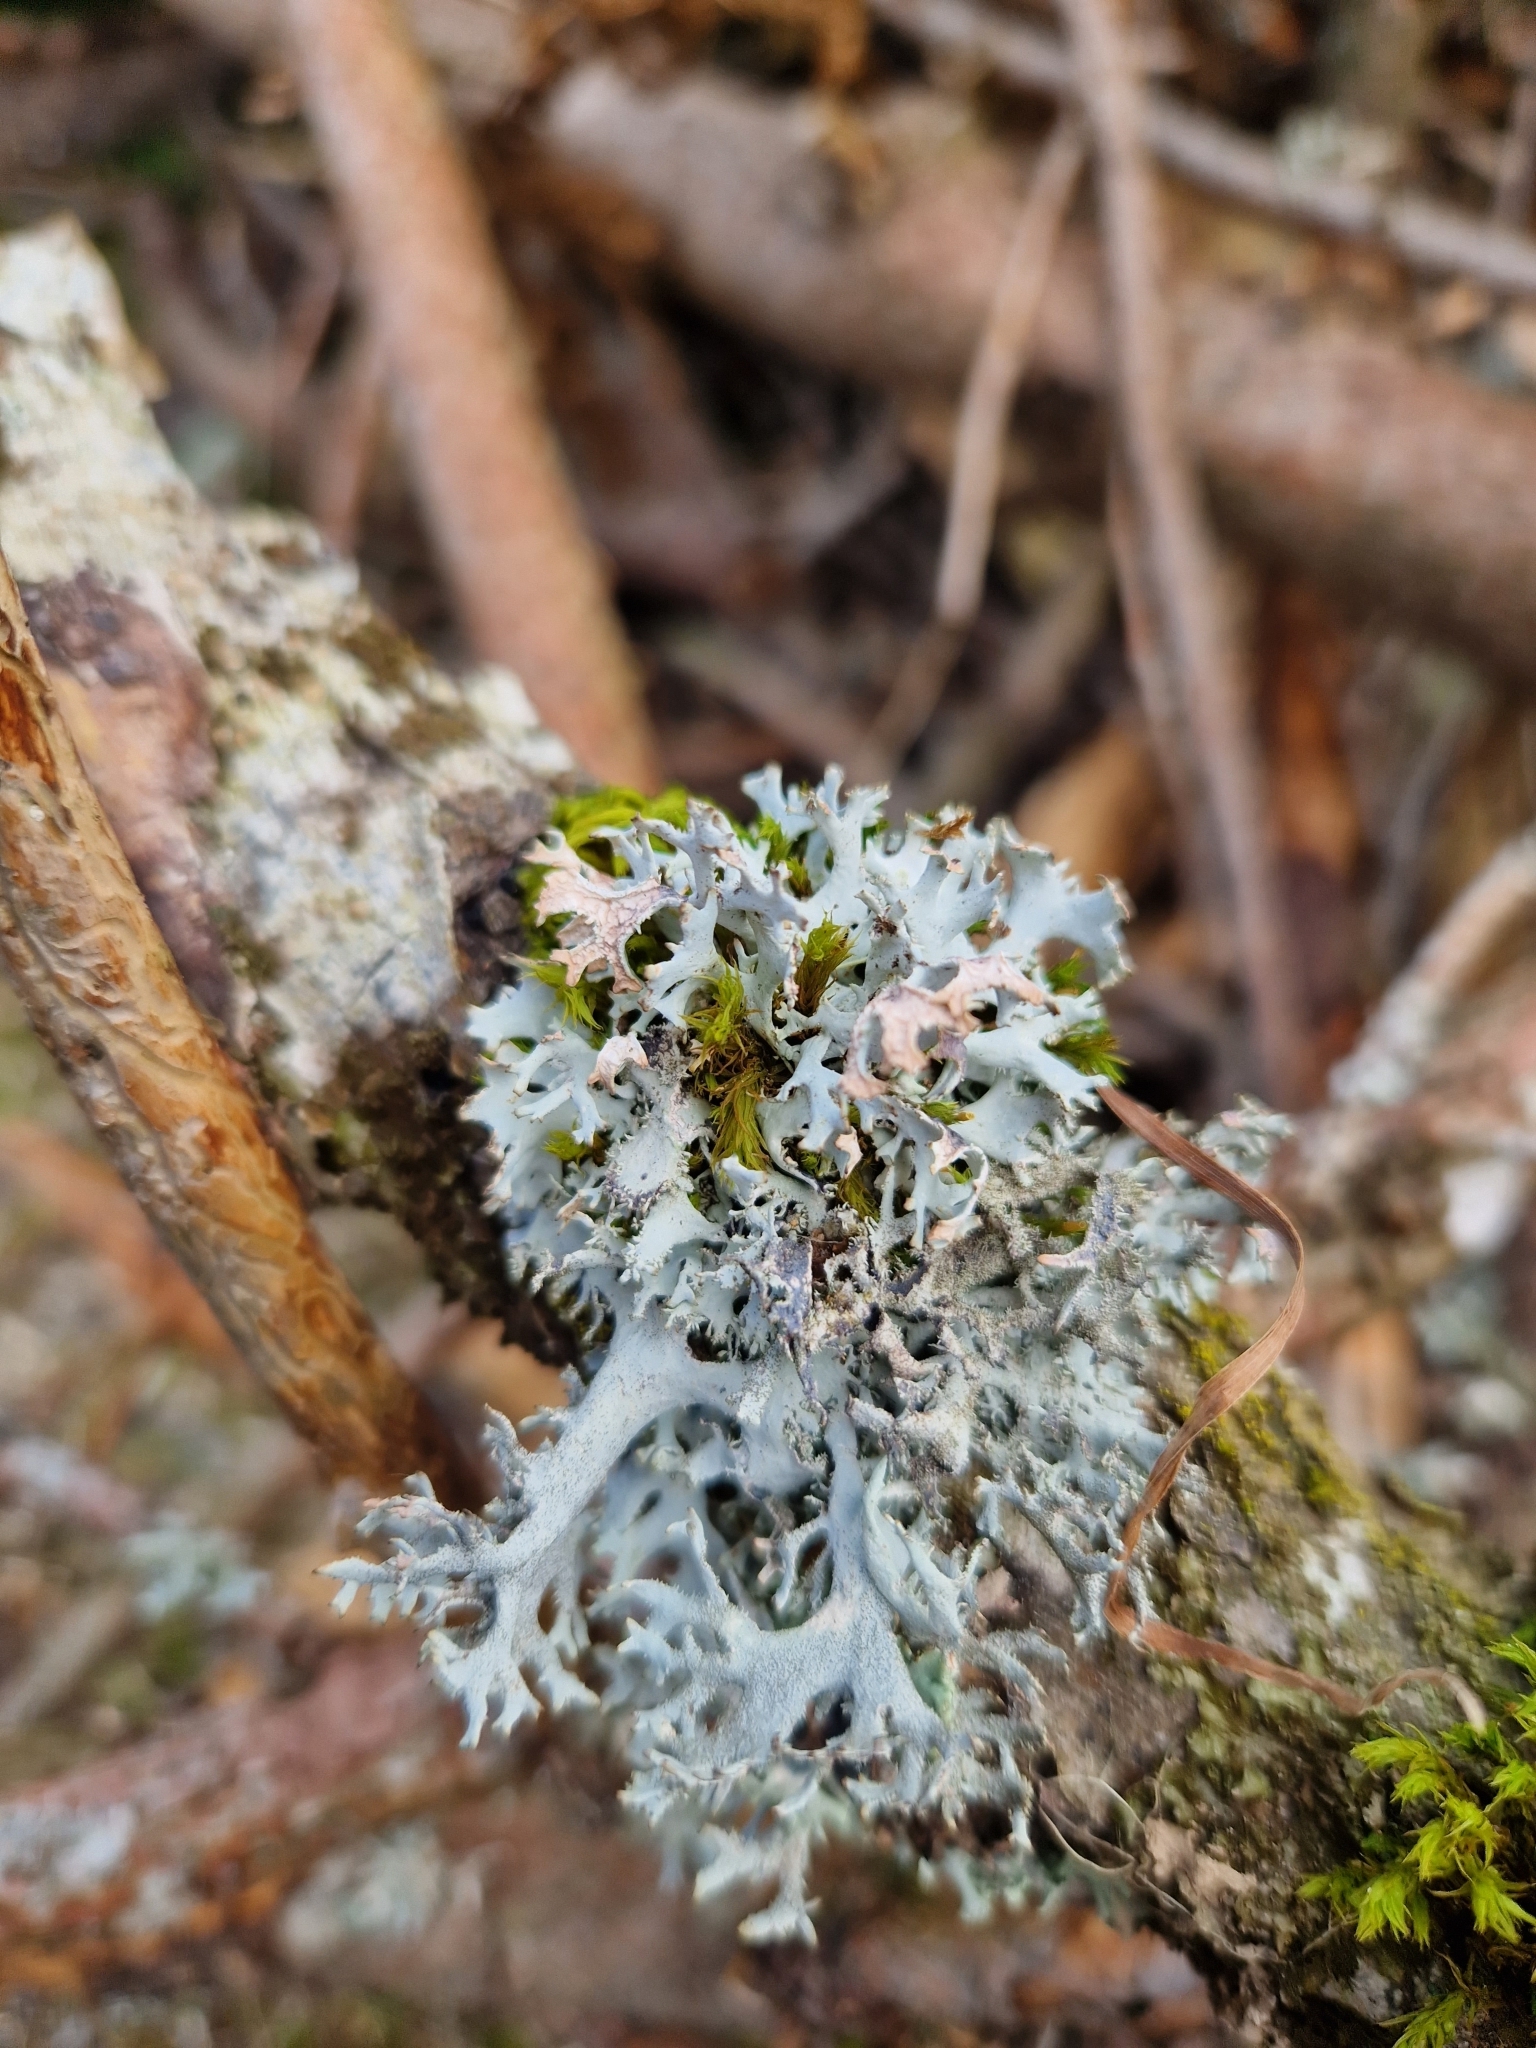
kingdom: Fungi
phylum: Ascomycota
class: Lecanoromycetes
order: Lecanorales
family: Parmeliaceae
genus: Pseudevernia
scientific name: Pseudevernia furfuracea
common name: Tree moss
